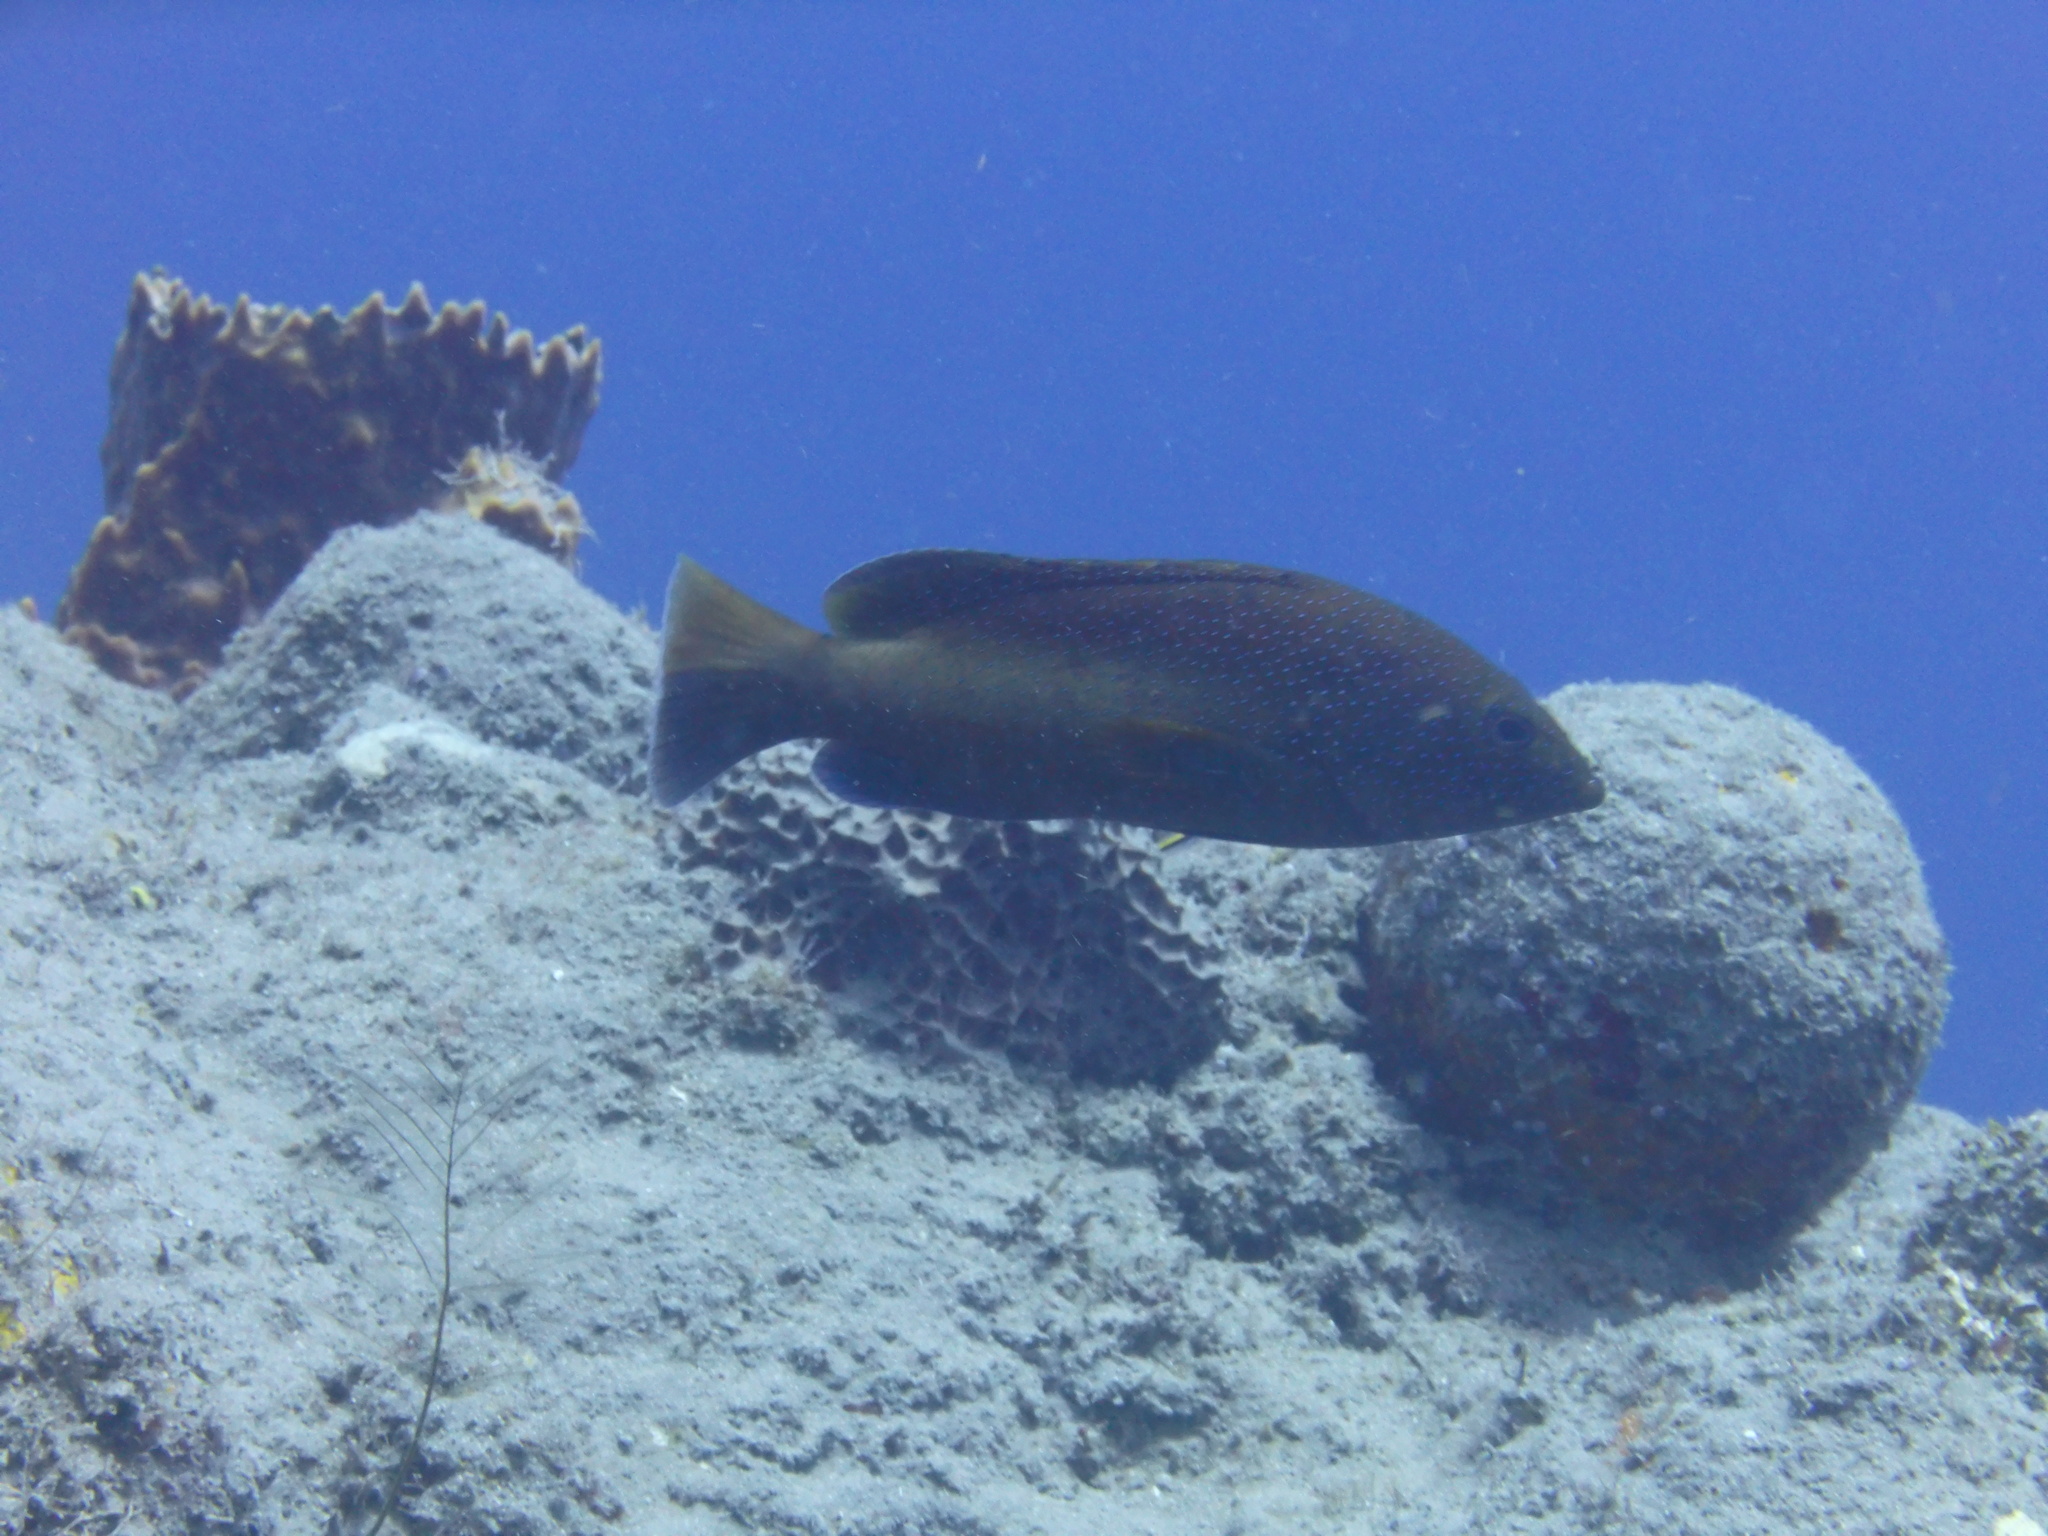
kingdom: Animalia
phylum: Chordata
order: Perciformes
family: Serranidae
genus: Cephalopholis
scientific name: Cephalopholis fulva
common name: Butterfish
